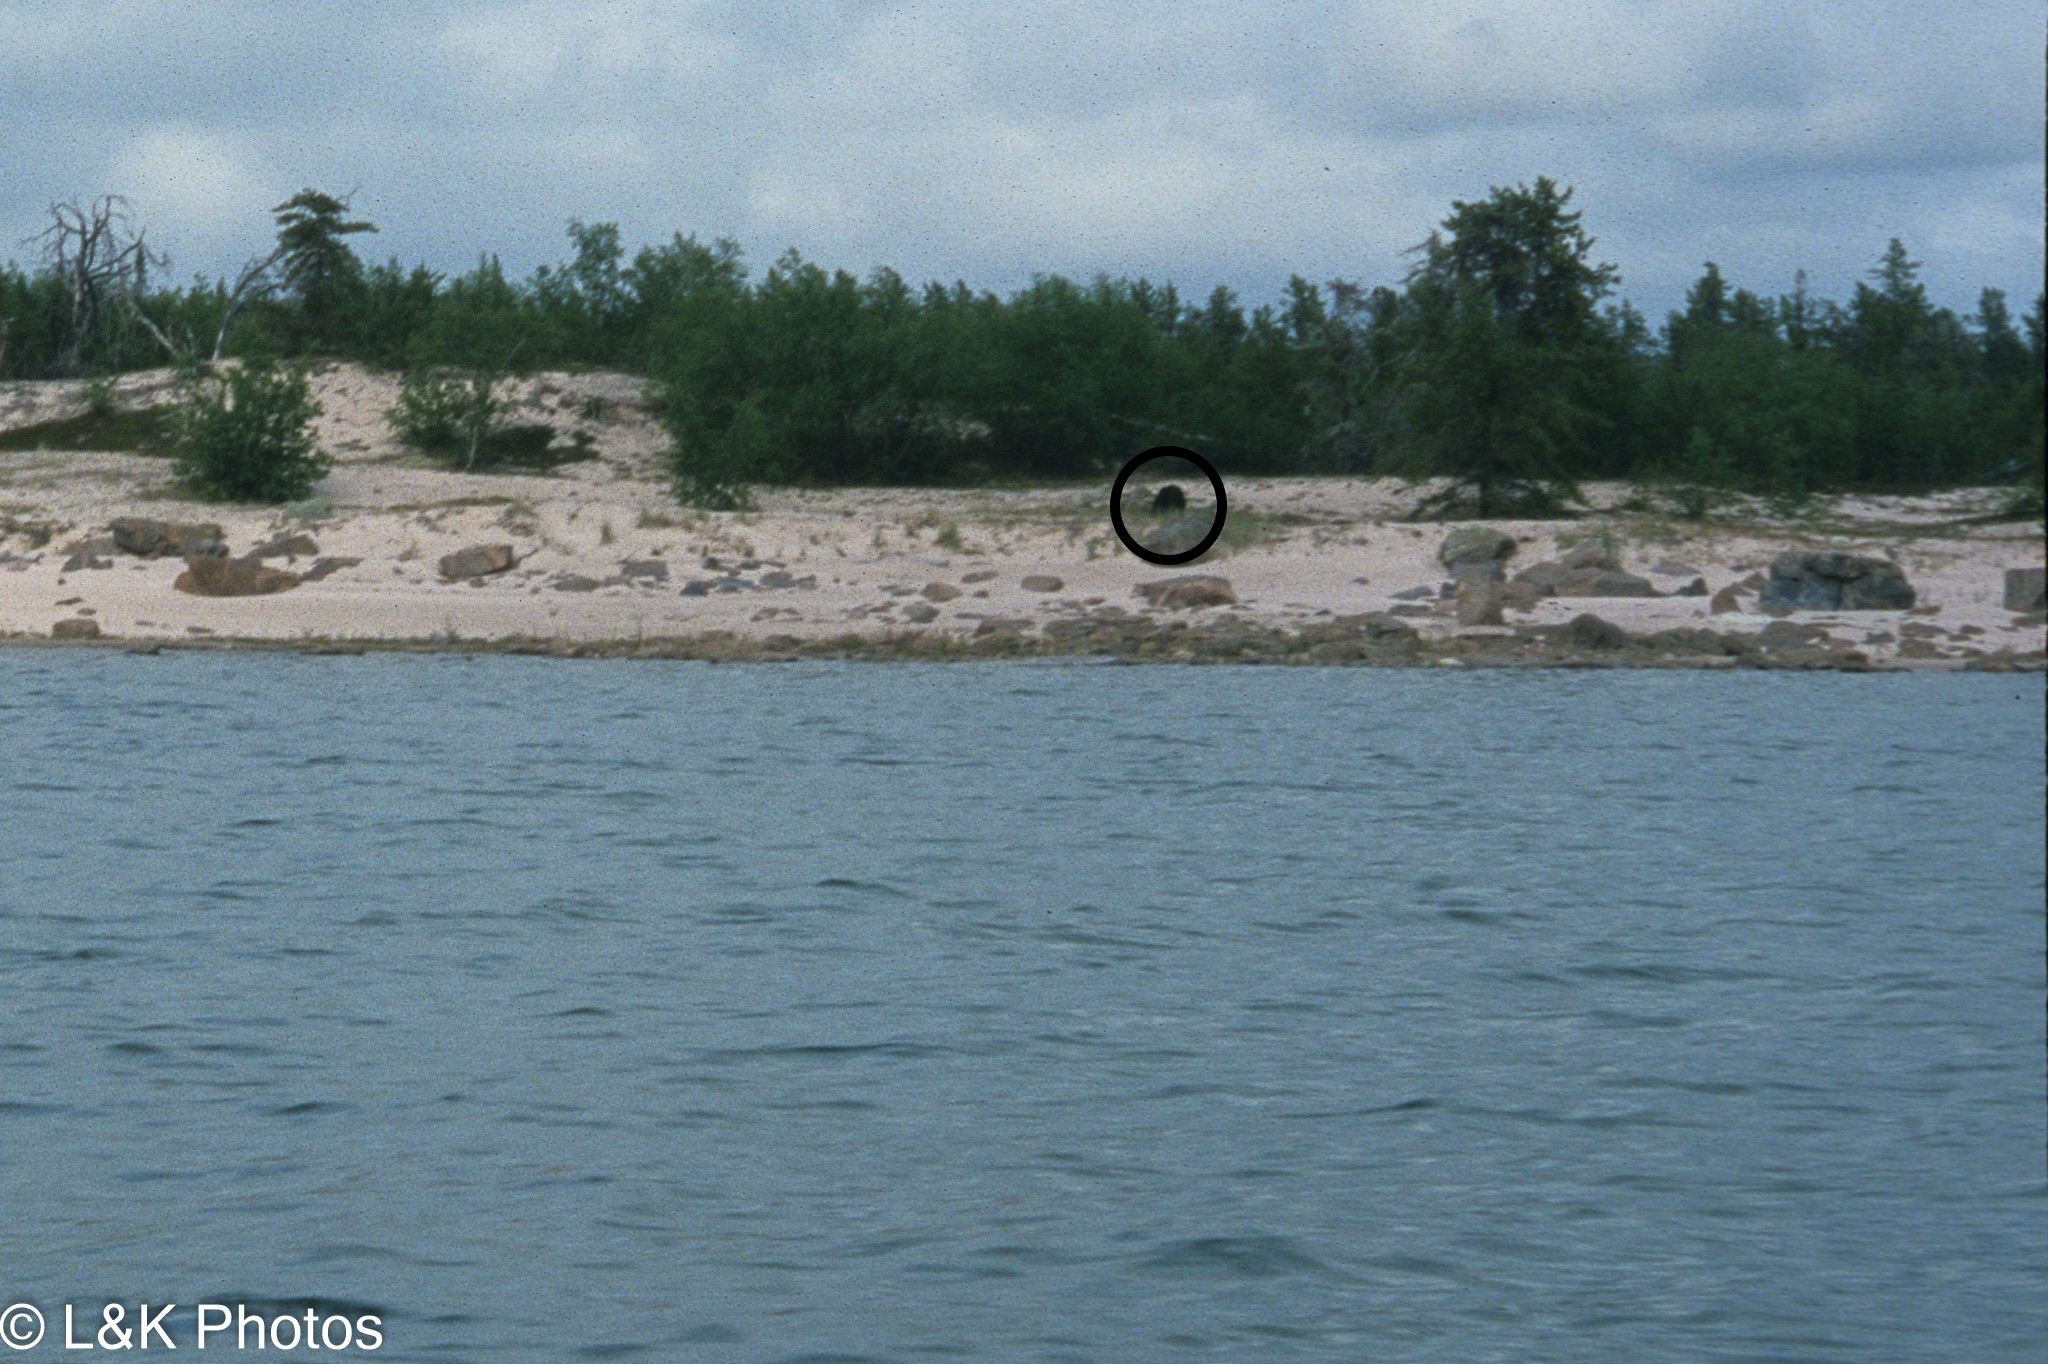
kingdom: Animalia
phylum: Chordata
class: Mammalia
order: Carnivora
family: Ursidae
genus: Ursus
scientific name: Ursus americanus
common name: American black bear
